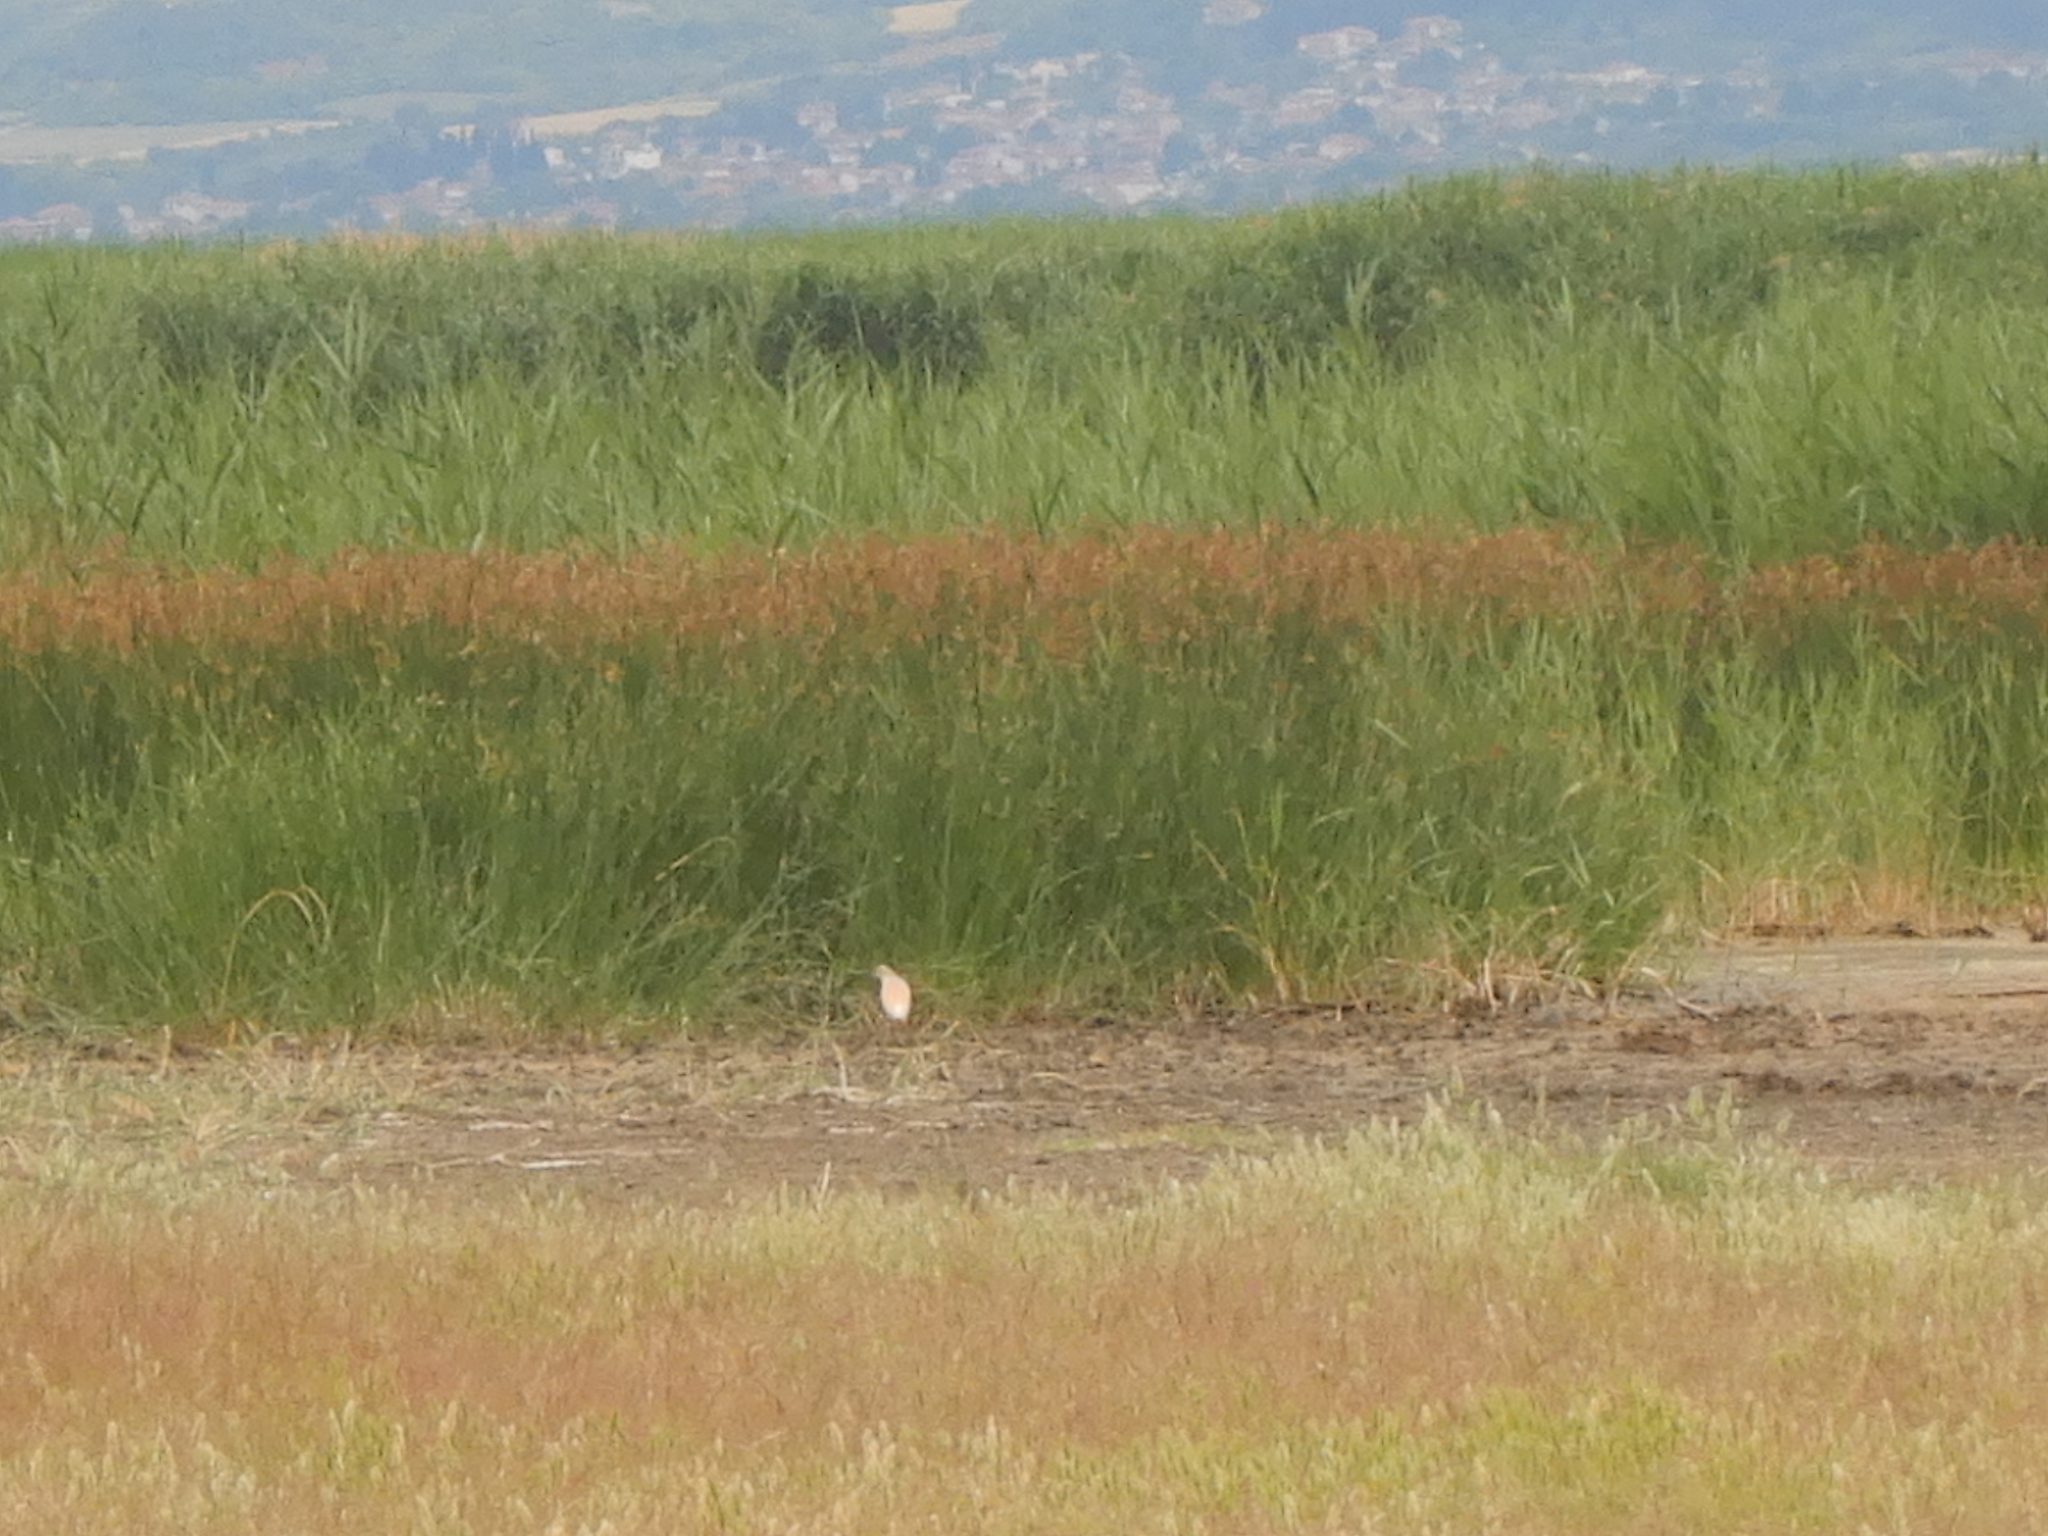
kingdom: Animalia
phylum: Chordata
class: Aves
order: Pelecaniformes
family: Ardeidae
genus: Ardeola
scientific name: Ardeola ralloides
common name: Squacco heron
